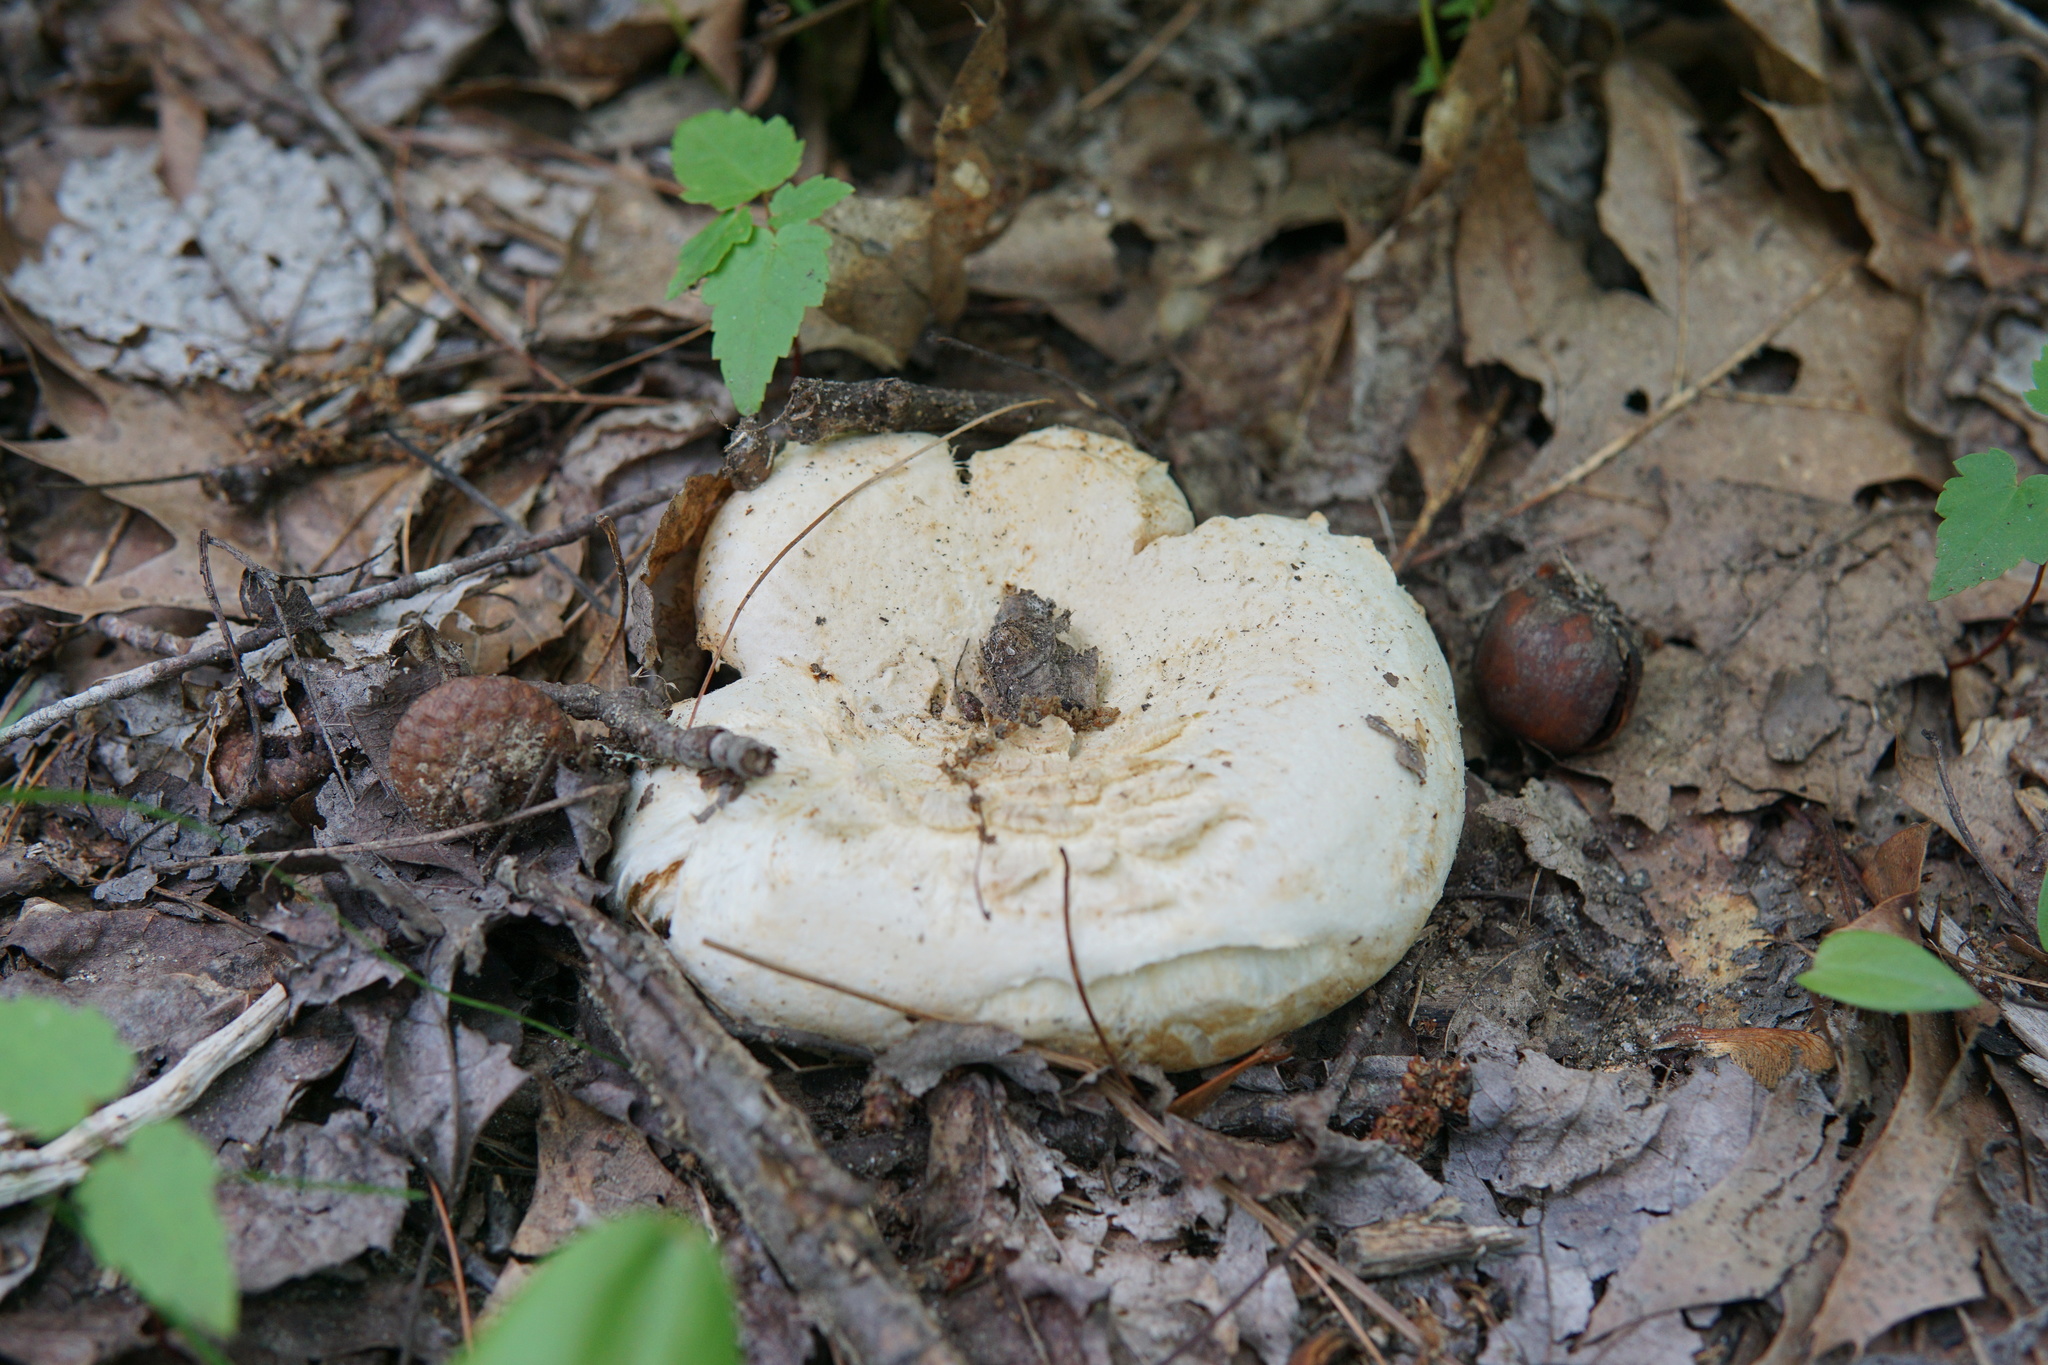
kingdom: Fungi
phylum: Basidiomycota
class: Agaricomycetes
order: Russulales
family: Russulaceae
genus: Lactifluus
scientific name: Lactifluus
